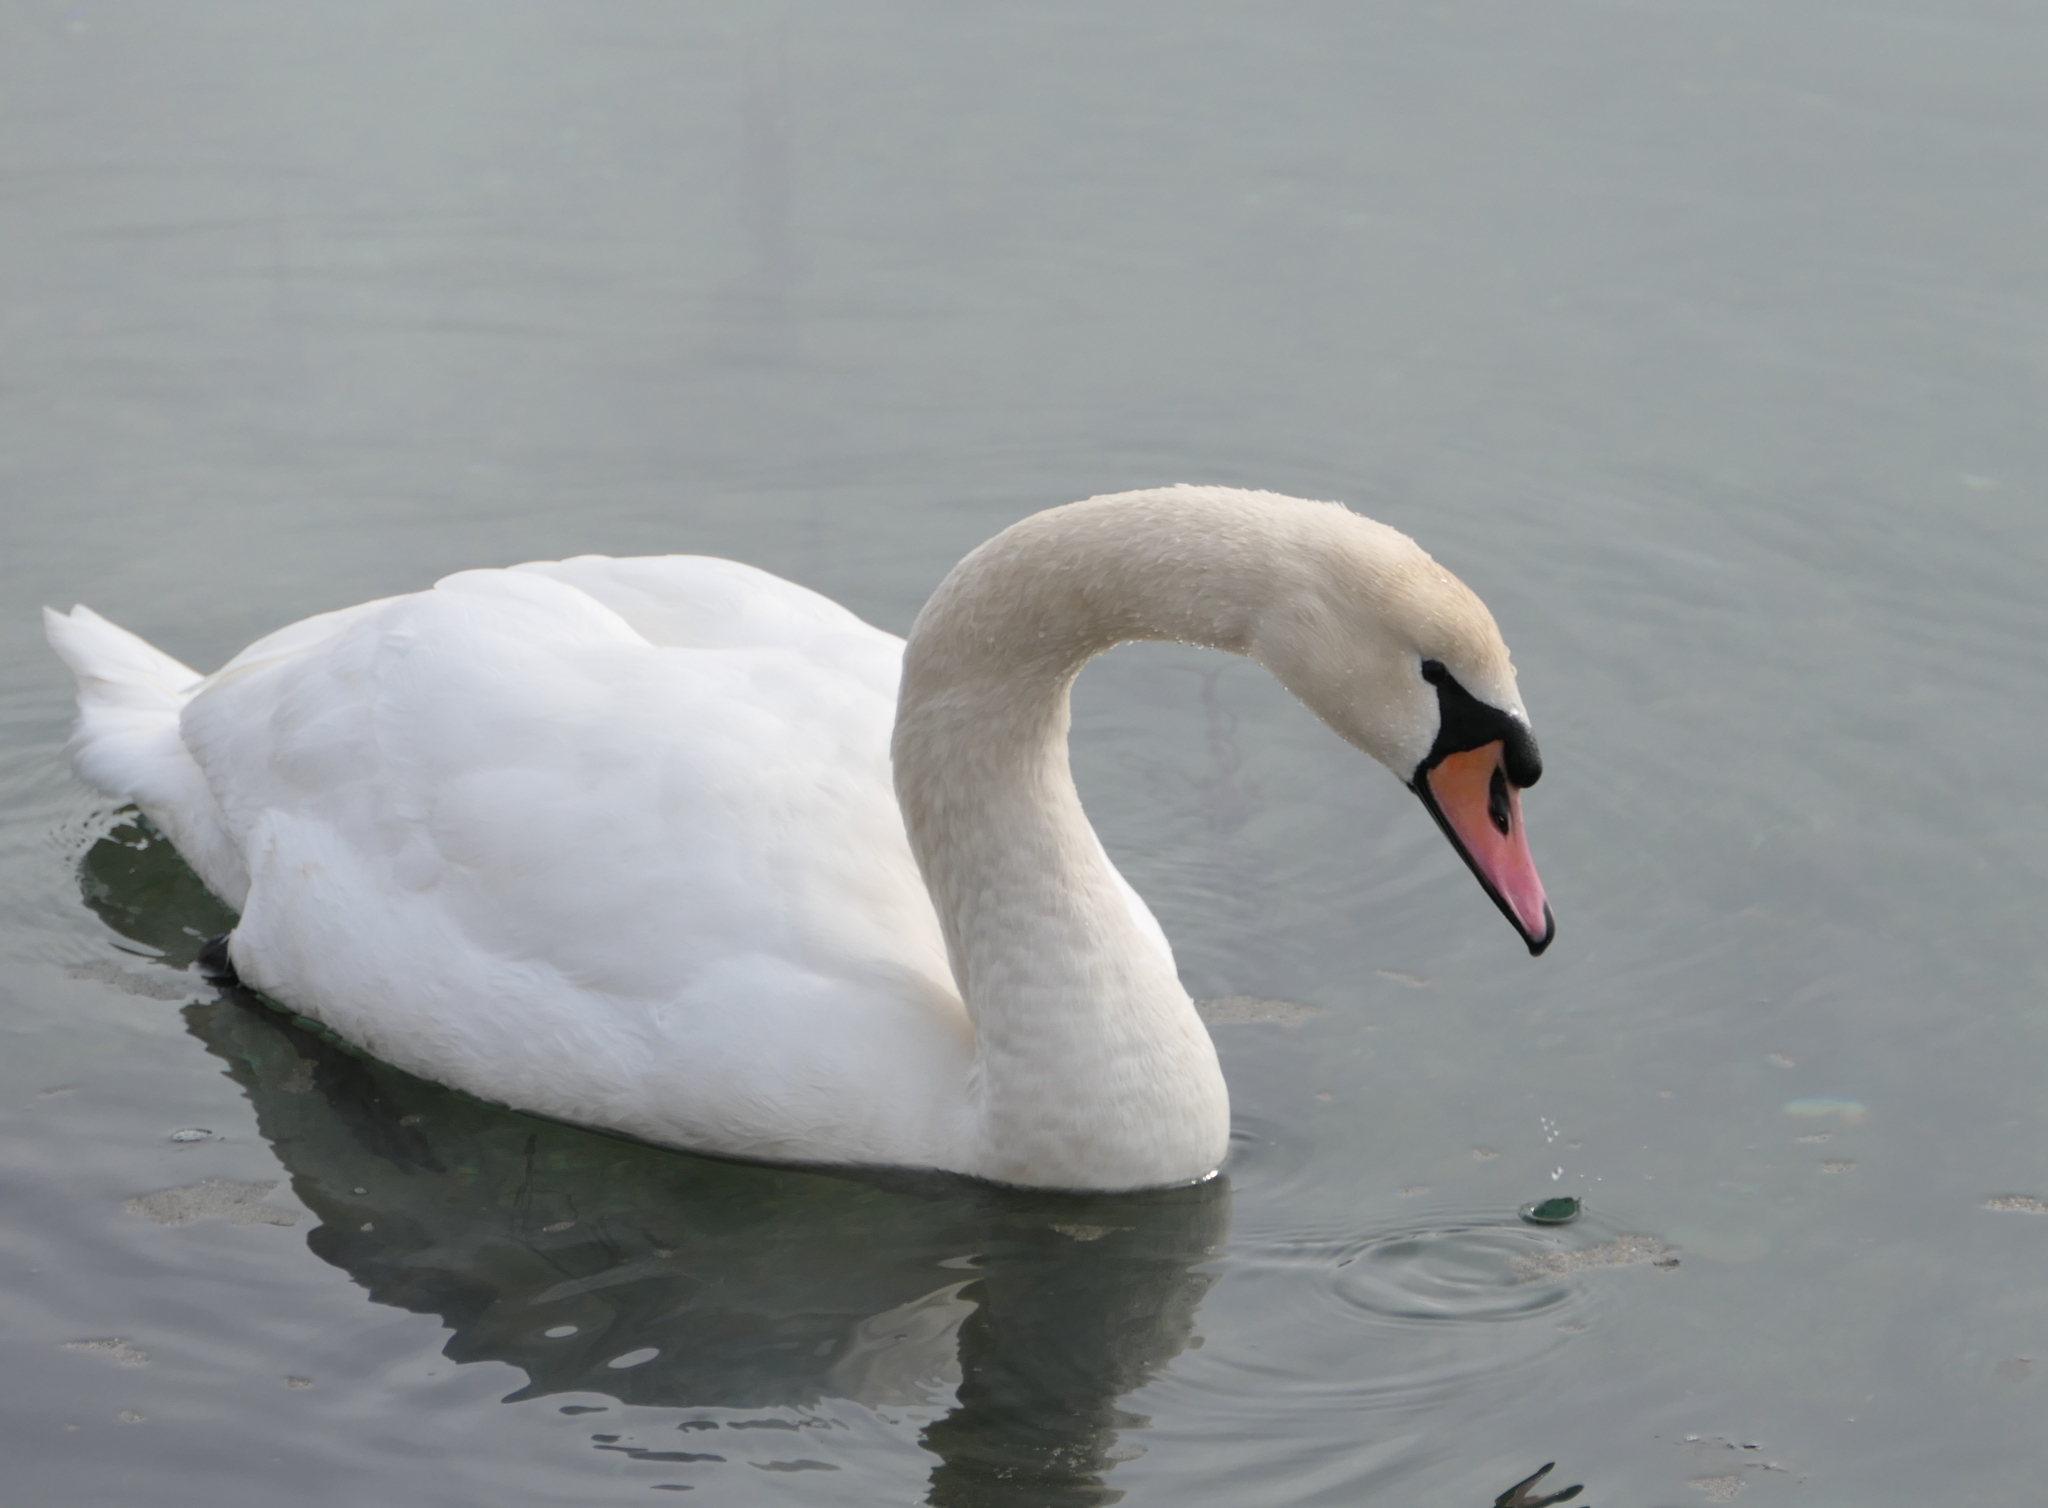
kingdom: Animalia
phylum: Chordata
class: Aves
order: Anseriformes
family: Anatidae
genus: Cygnus
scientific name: Cygnus olor
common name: Mute swan
